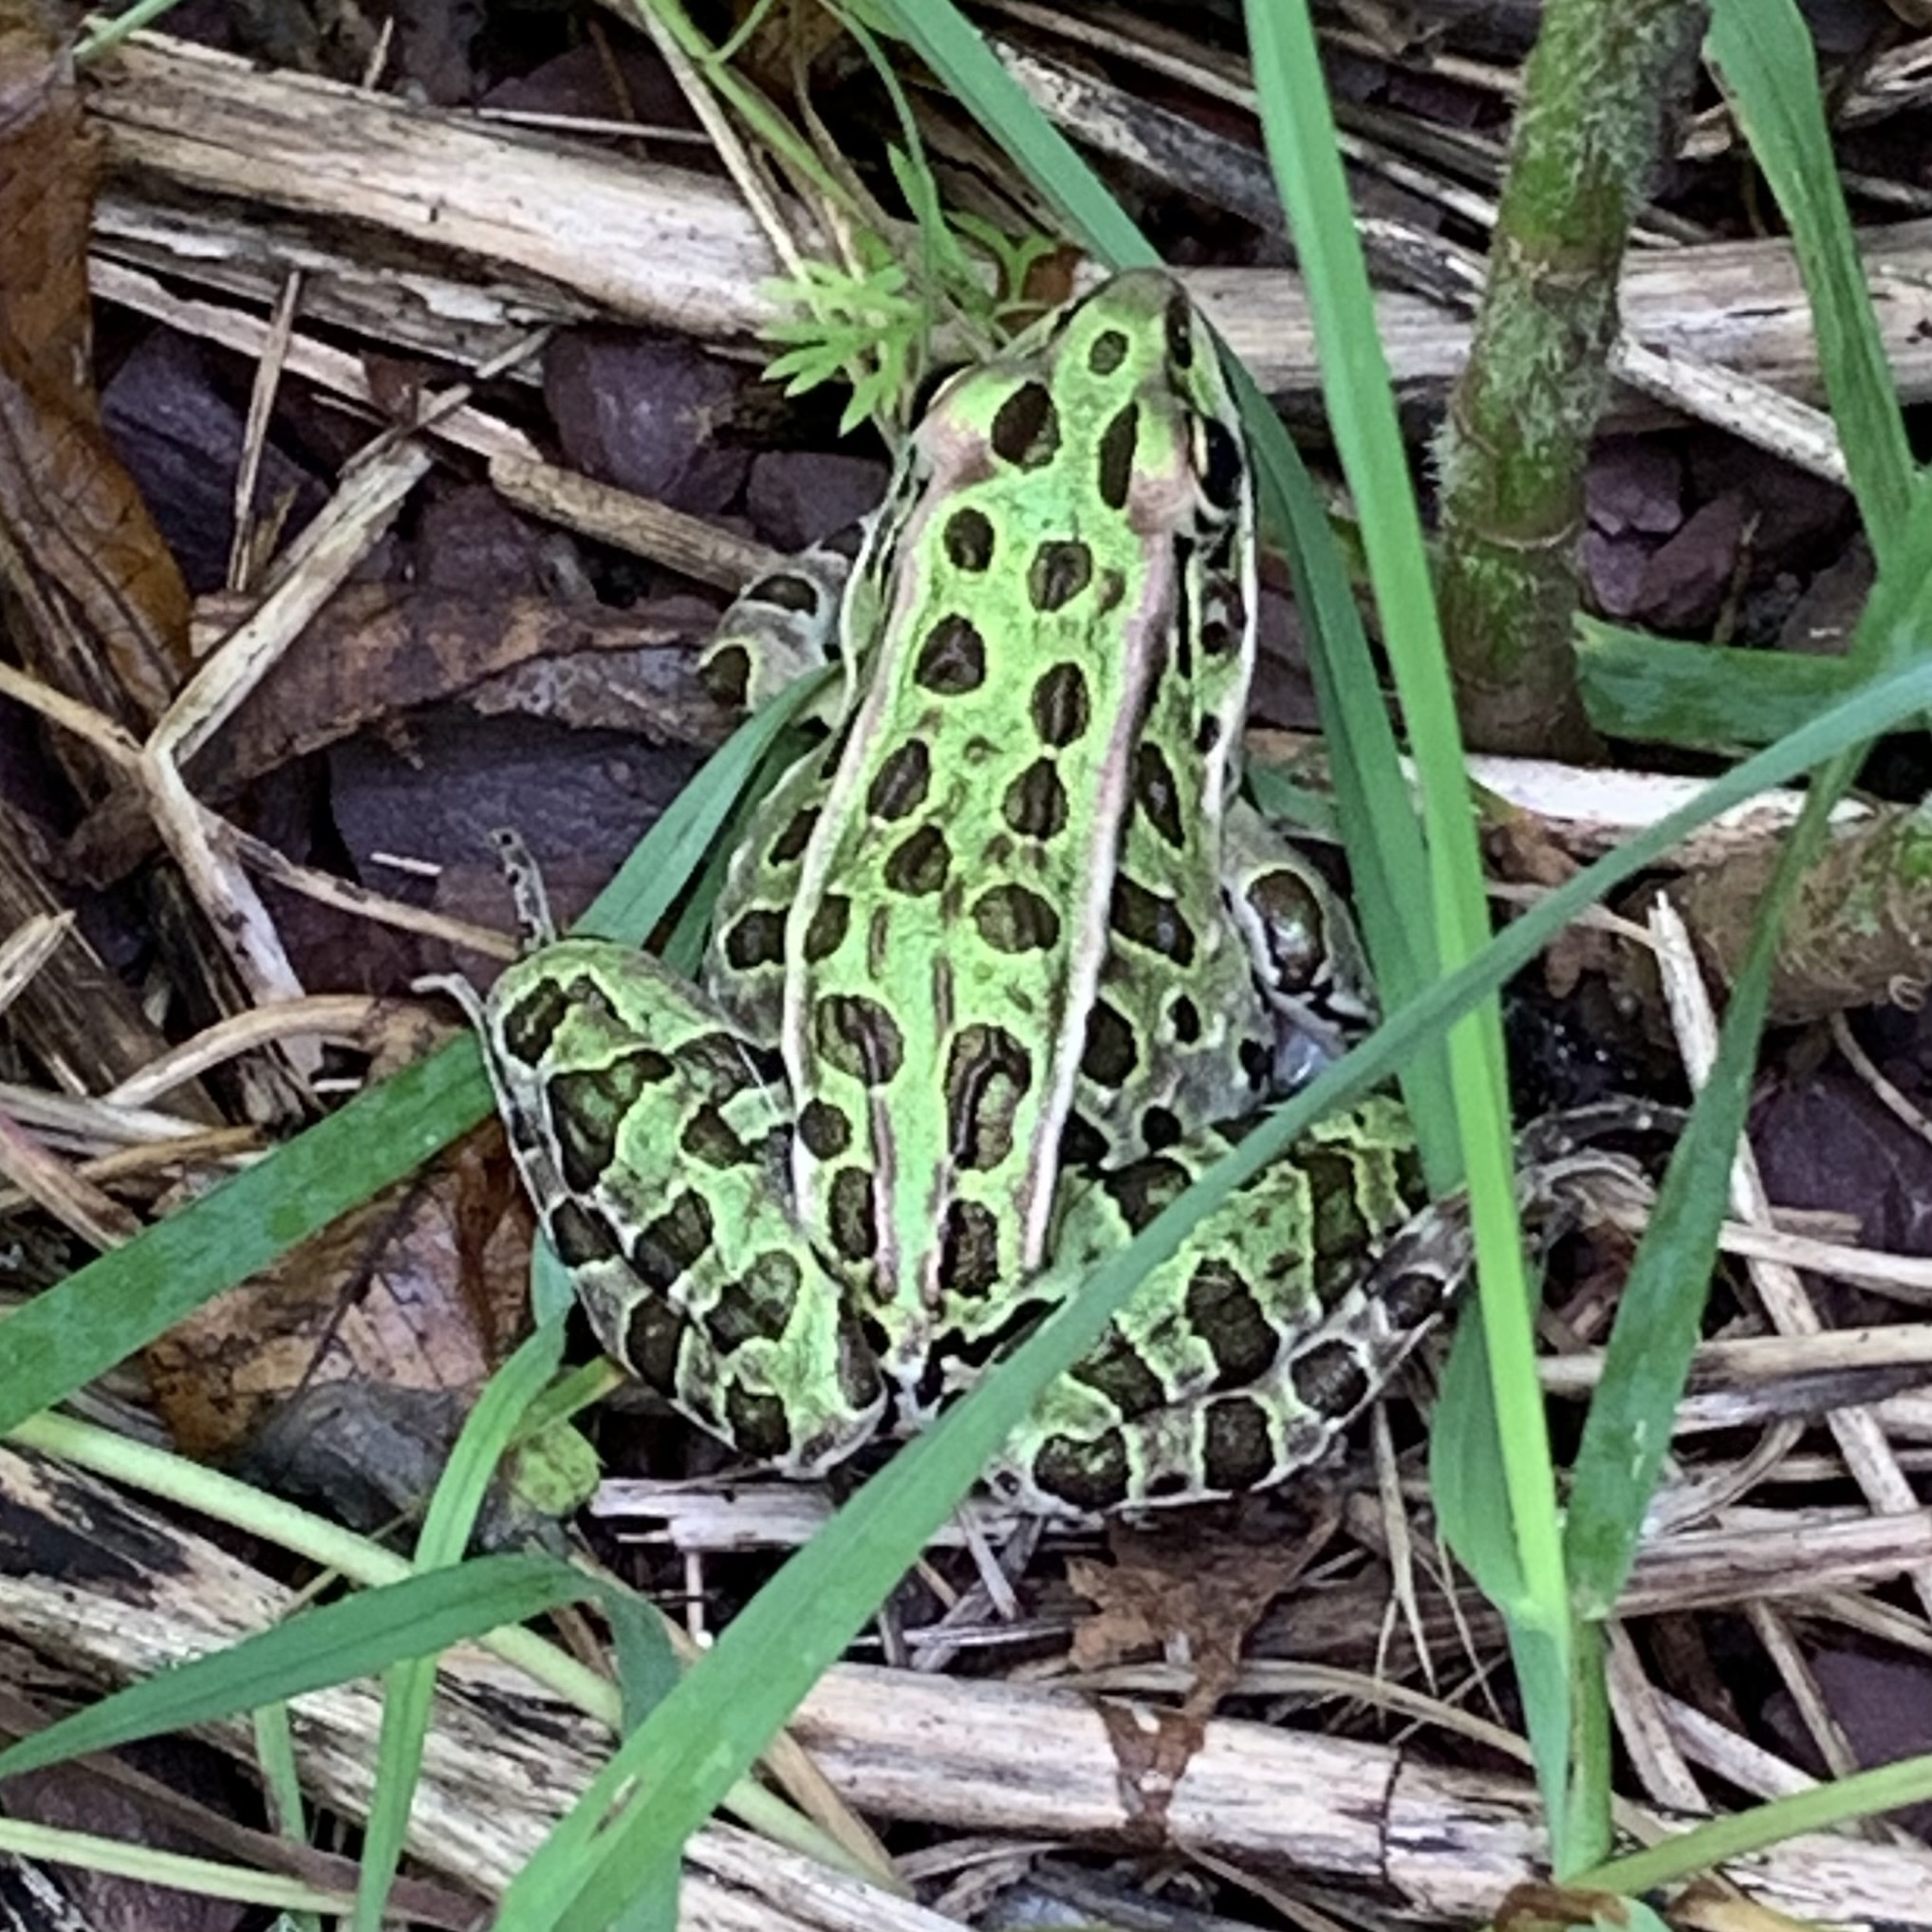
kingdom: Animalia
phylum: Chordata
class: Amphibia
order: Anura
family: Ranidae
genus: Lithobates
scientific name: Lithobates pipiens
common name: Northern leopard frog
